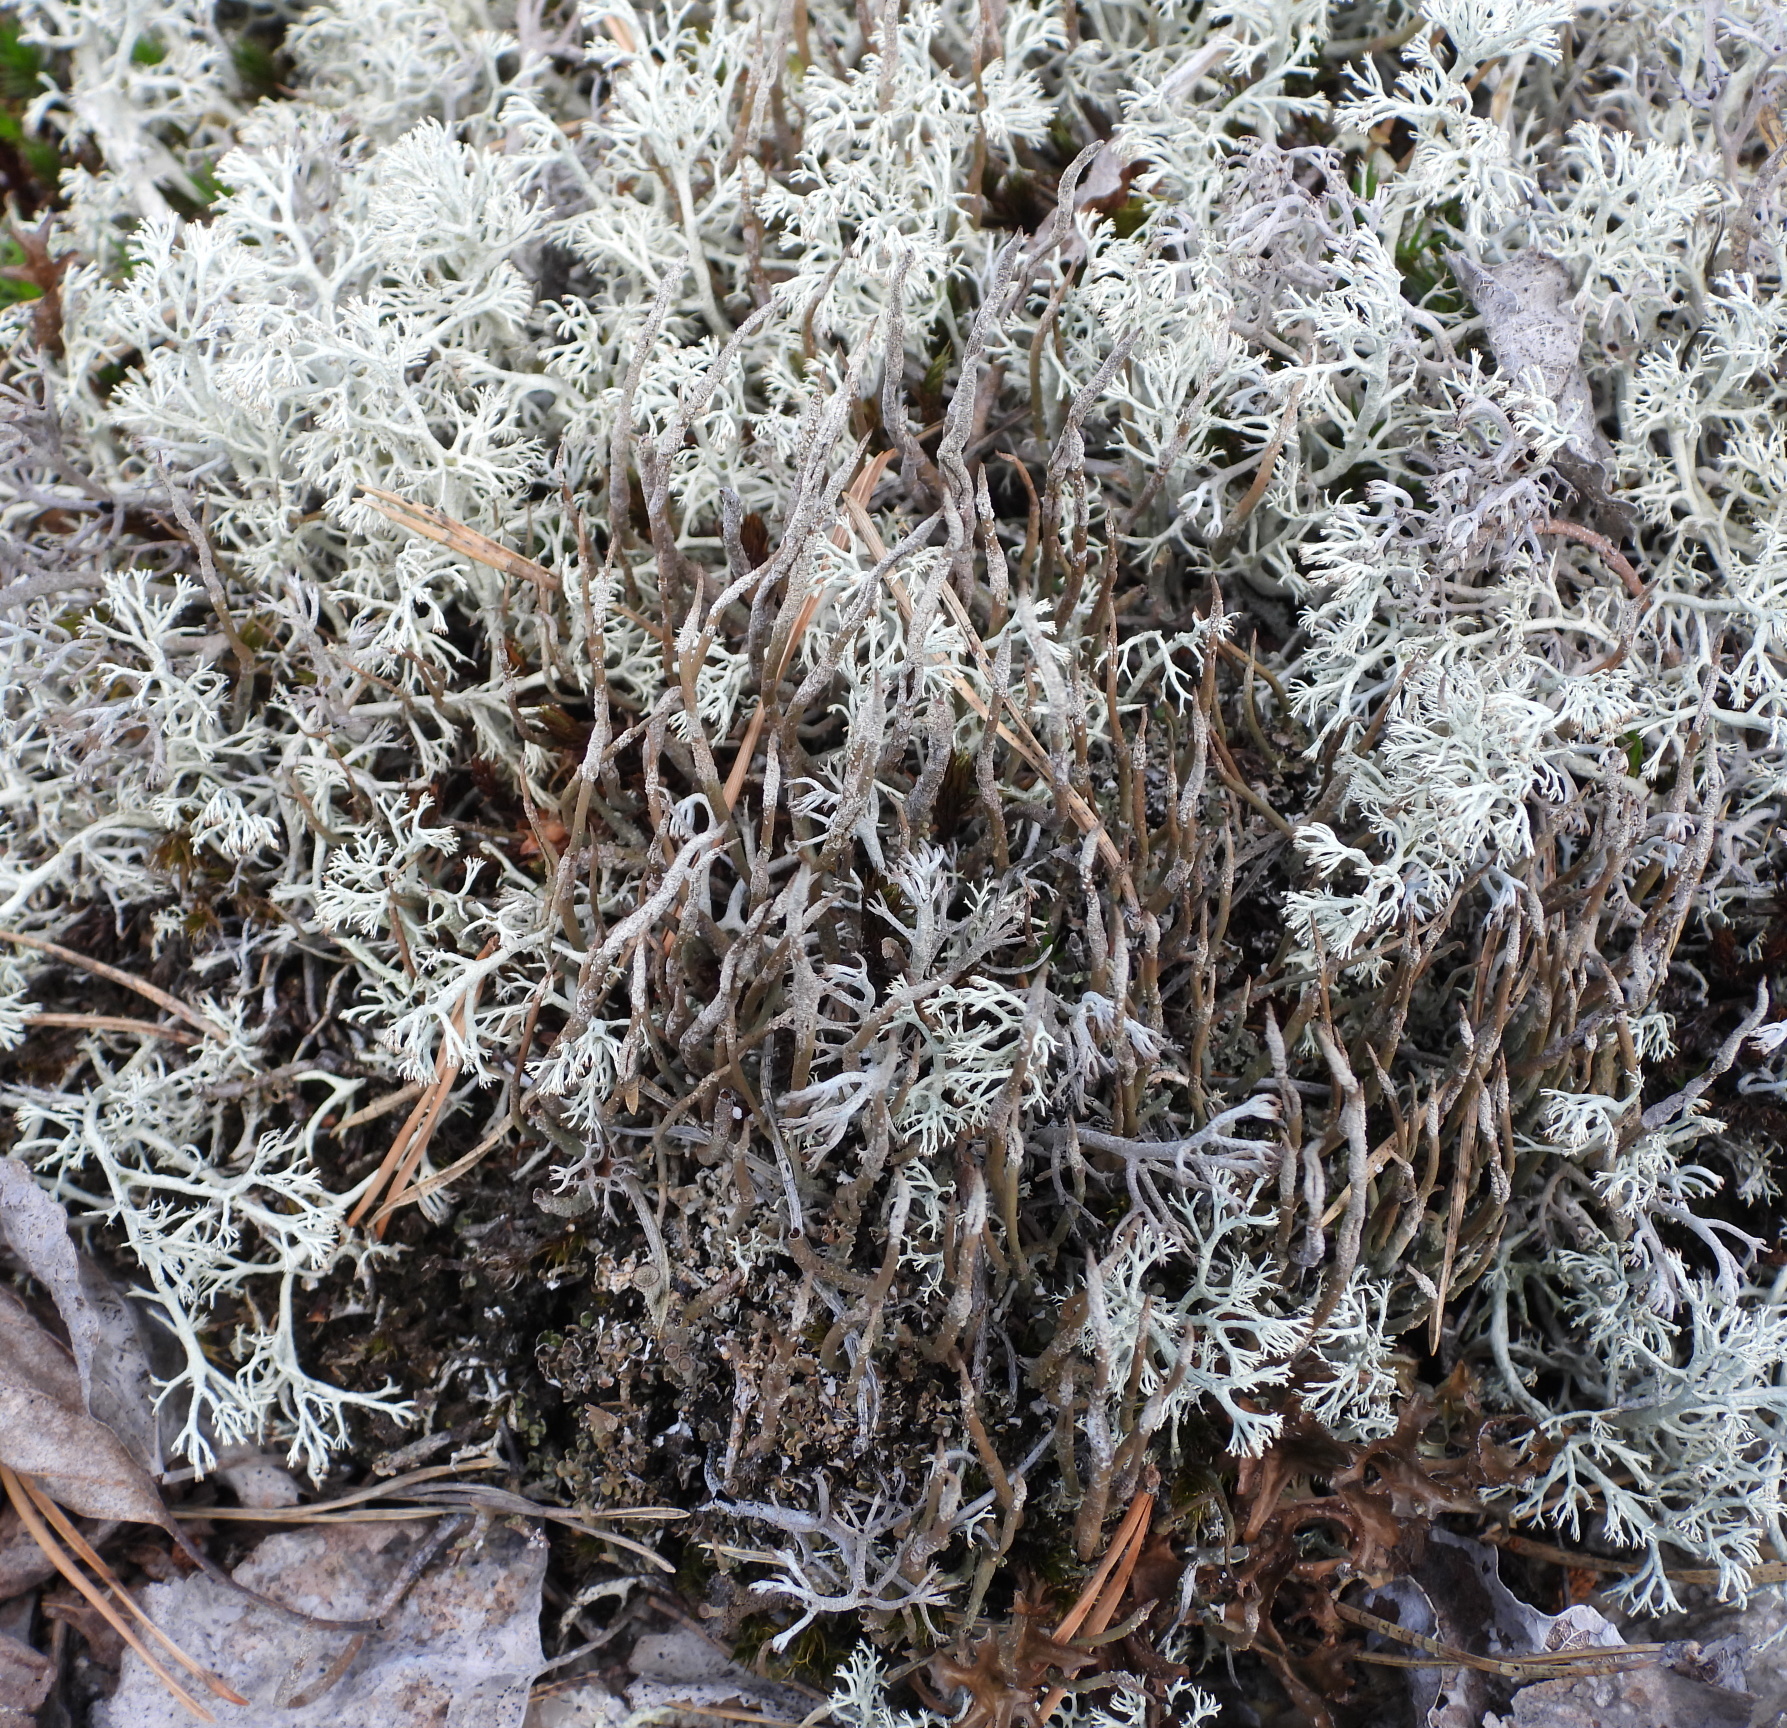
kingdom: Fungi
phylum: Ascomycota
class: Lecanoromycetes
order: Lecanorales
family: Cladoniaceae
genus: Cladonia
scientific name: Cladonia cornuta
